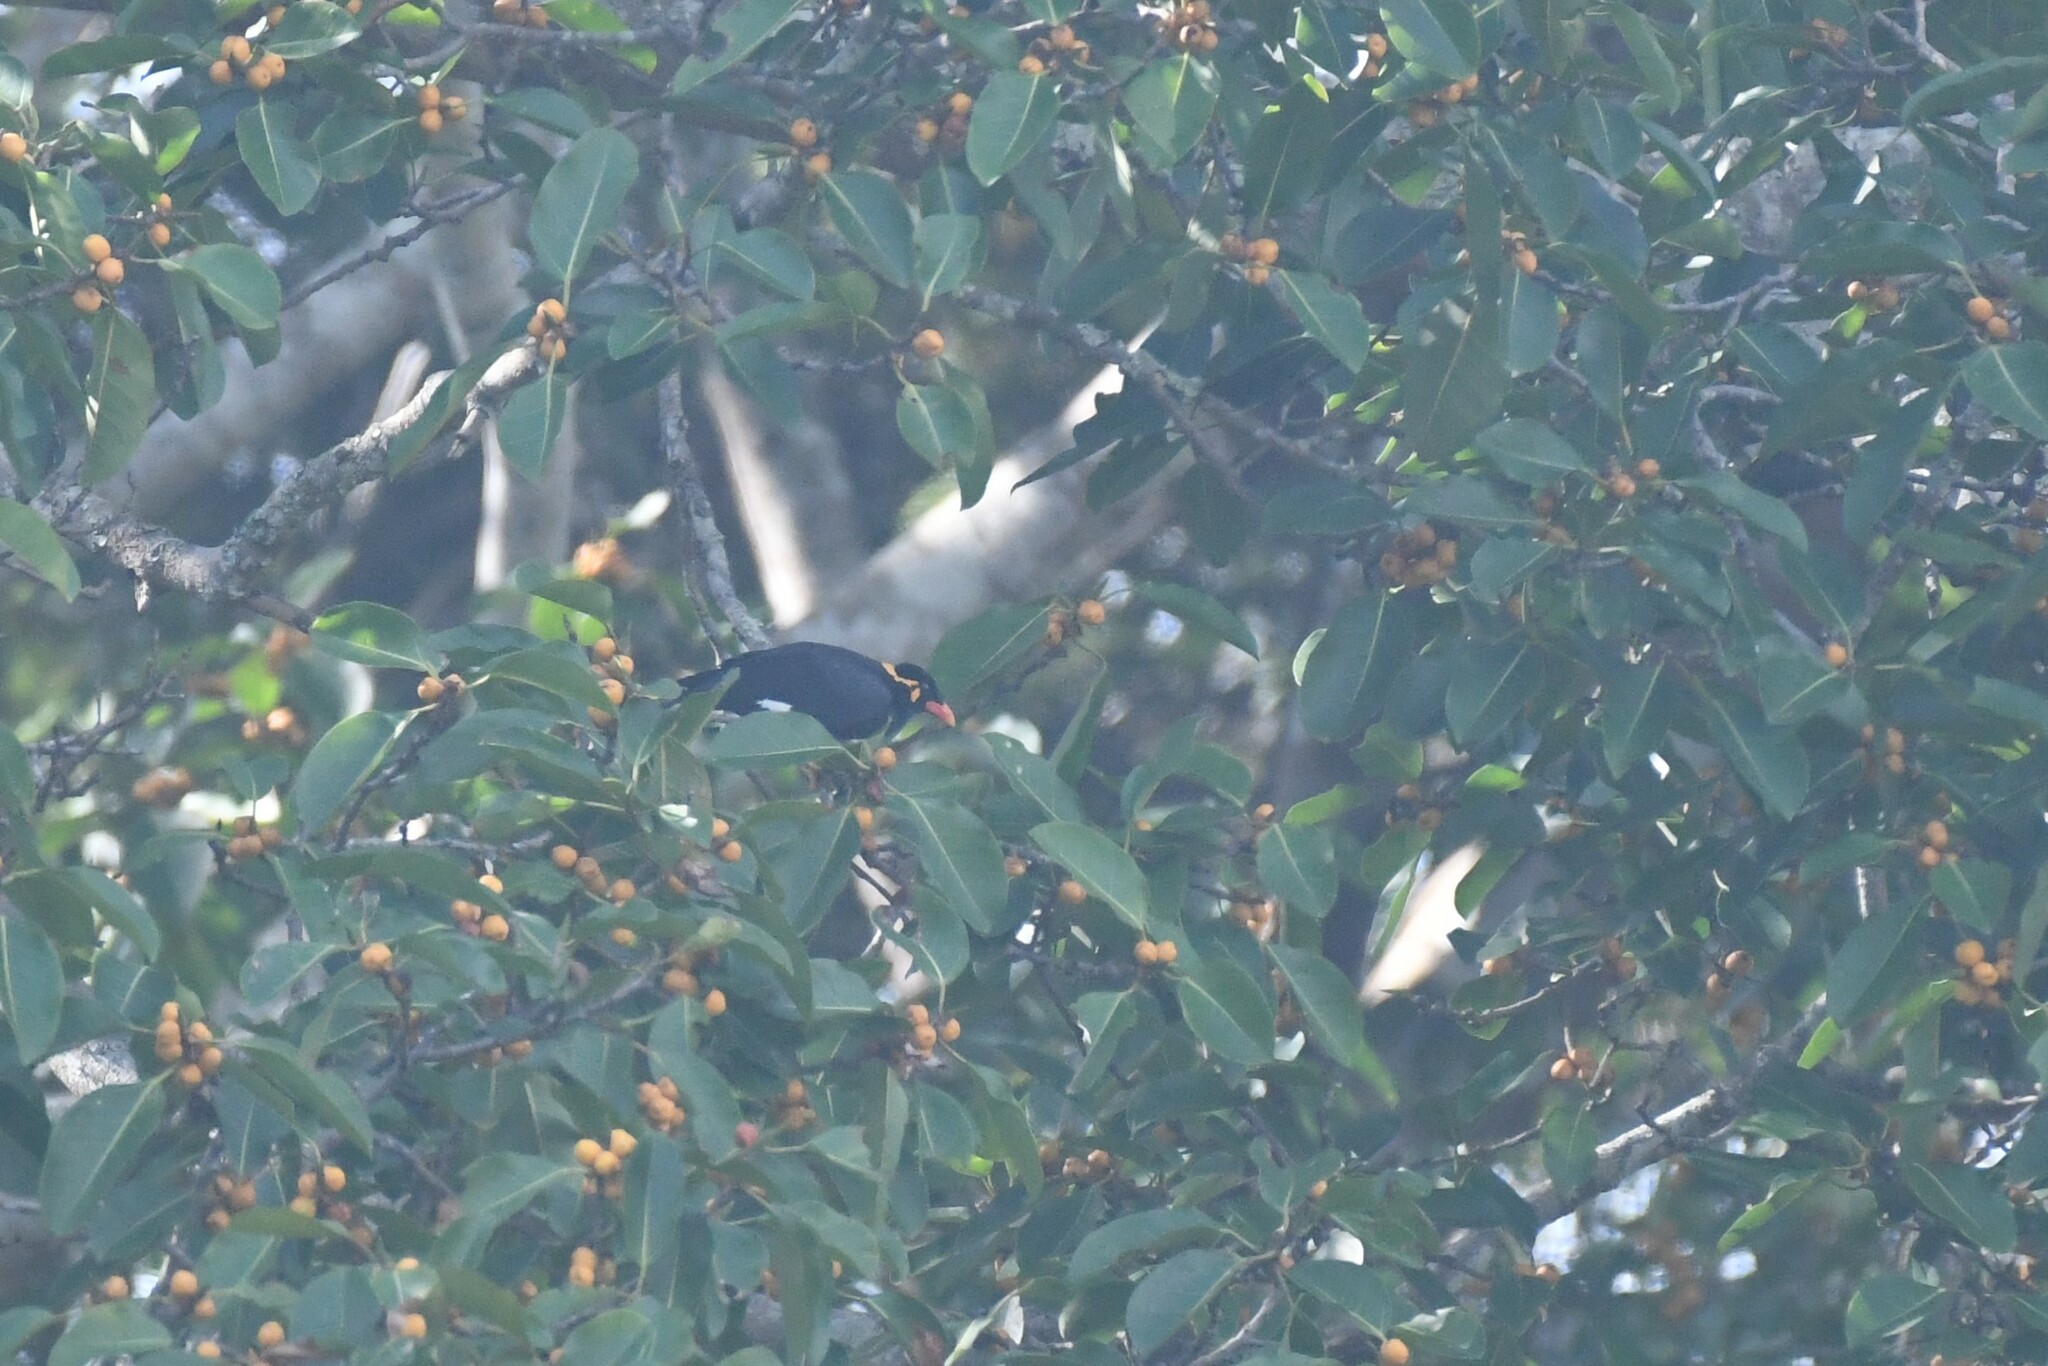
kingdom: Animalia
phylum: Chordata
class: Aves
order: Passeriformes
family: Sturnidae
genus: Gracula
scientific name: Gracula religiosa
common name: Common hill myna
